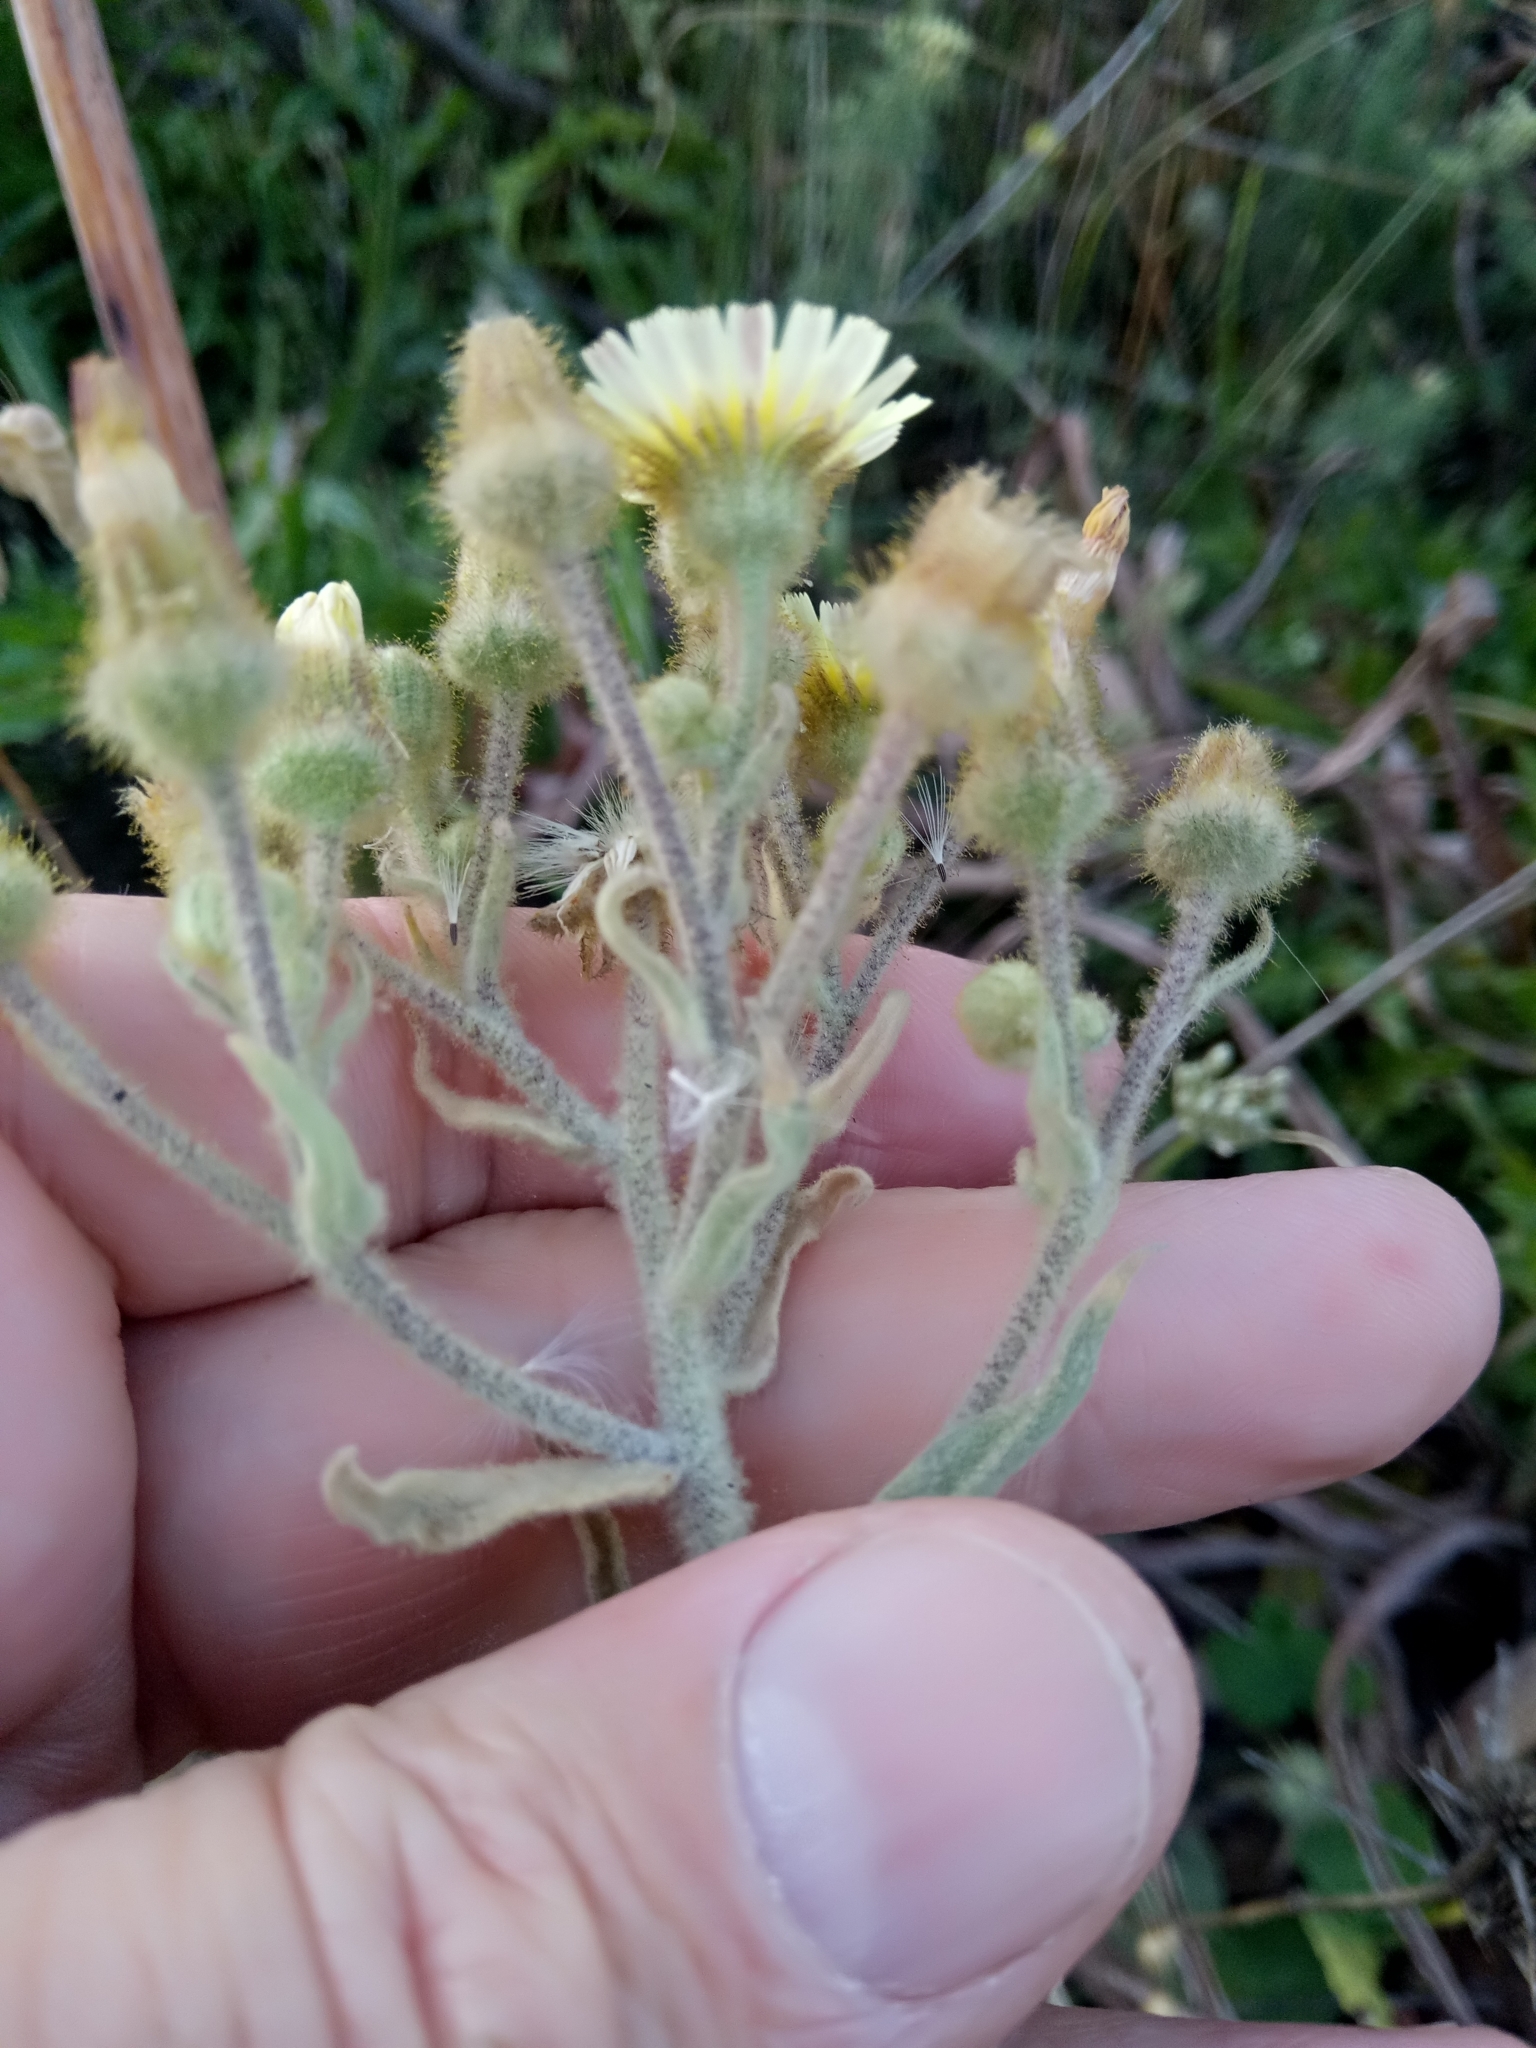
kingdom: Plantae
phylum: Tracheophyta
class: Magnoliopsida
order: Asterales
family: Asteraceae
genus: Andryala
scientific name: Andryala integrifolia
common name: Common andryala
